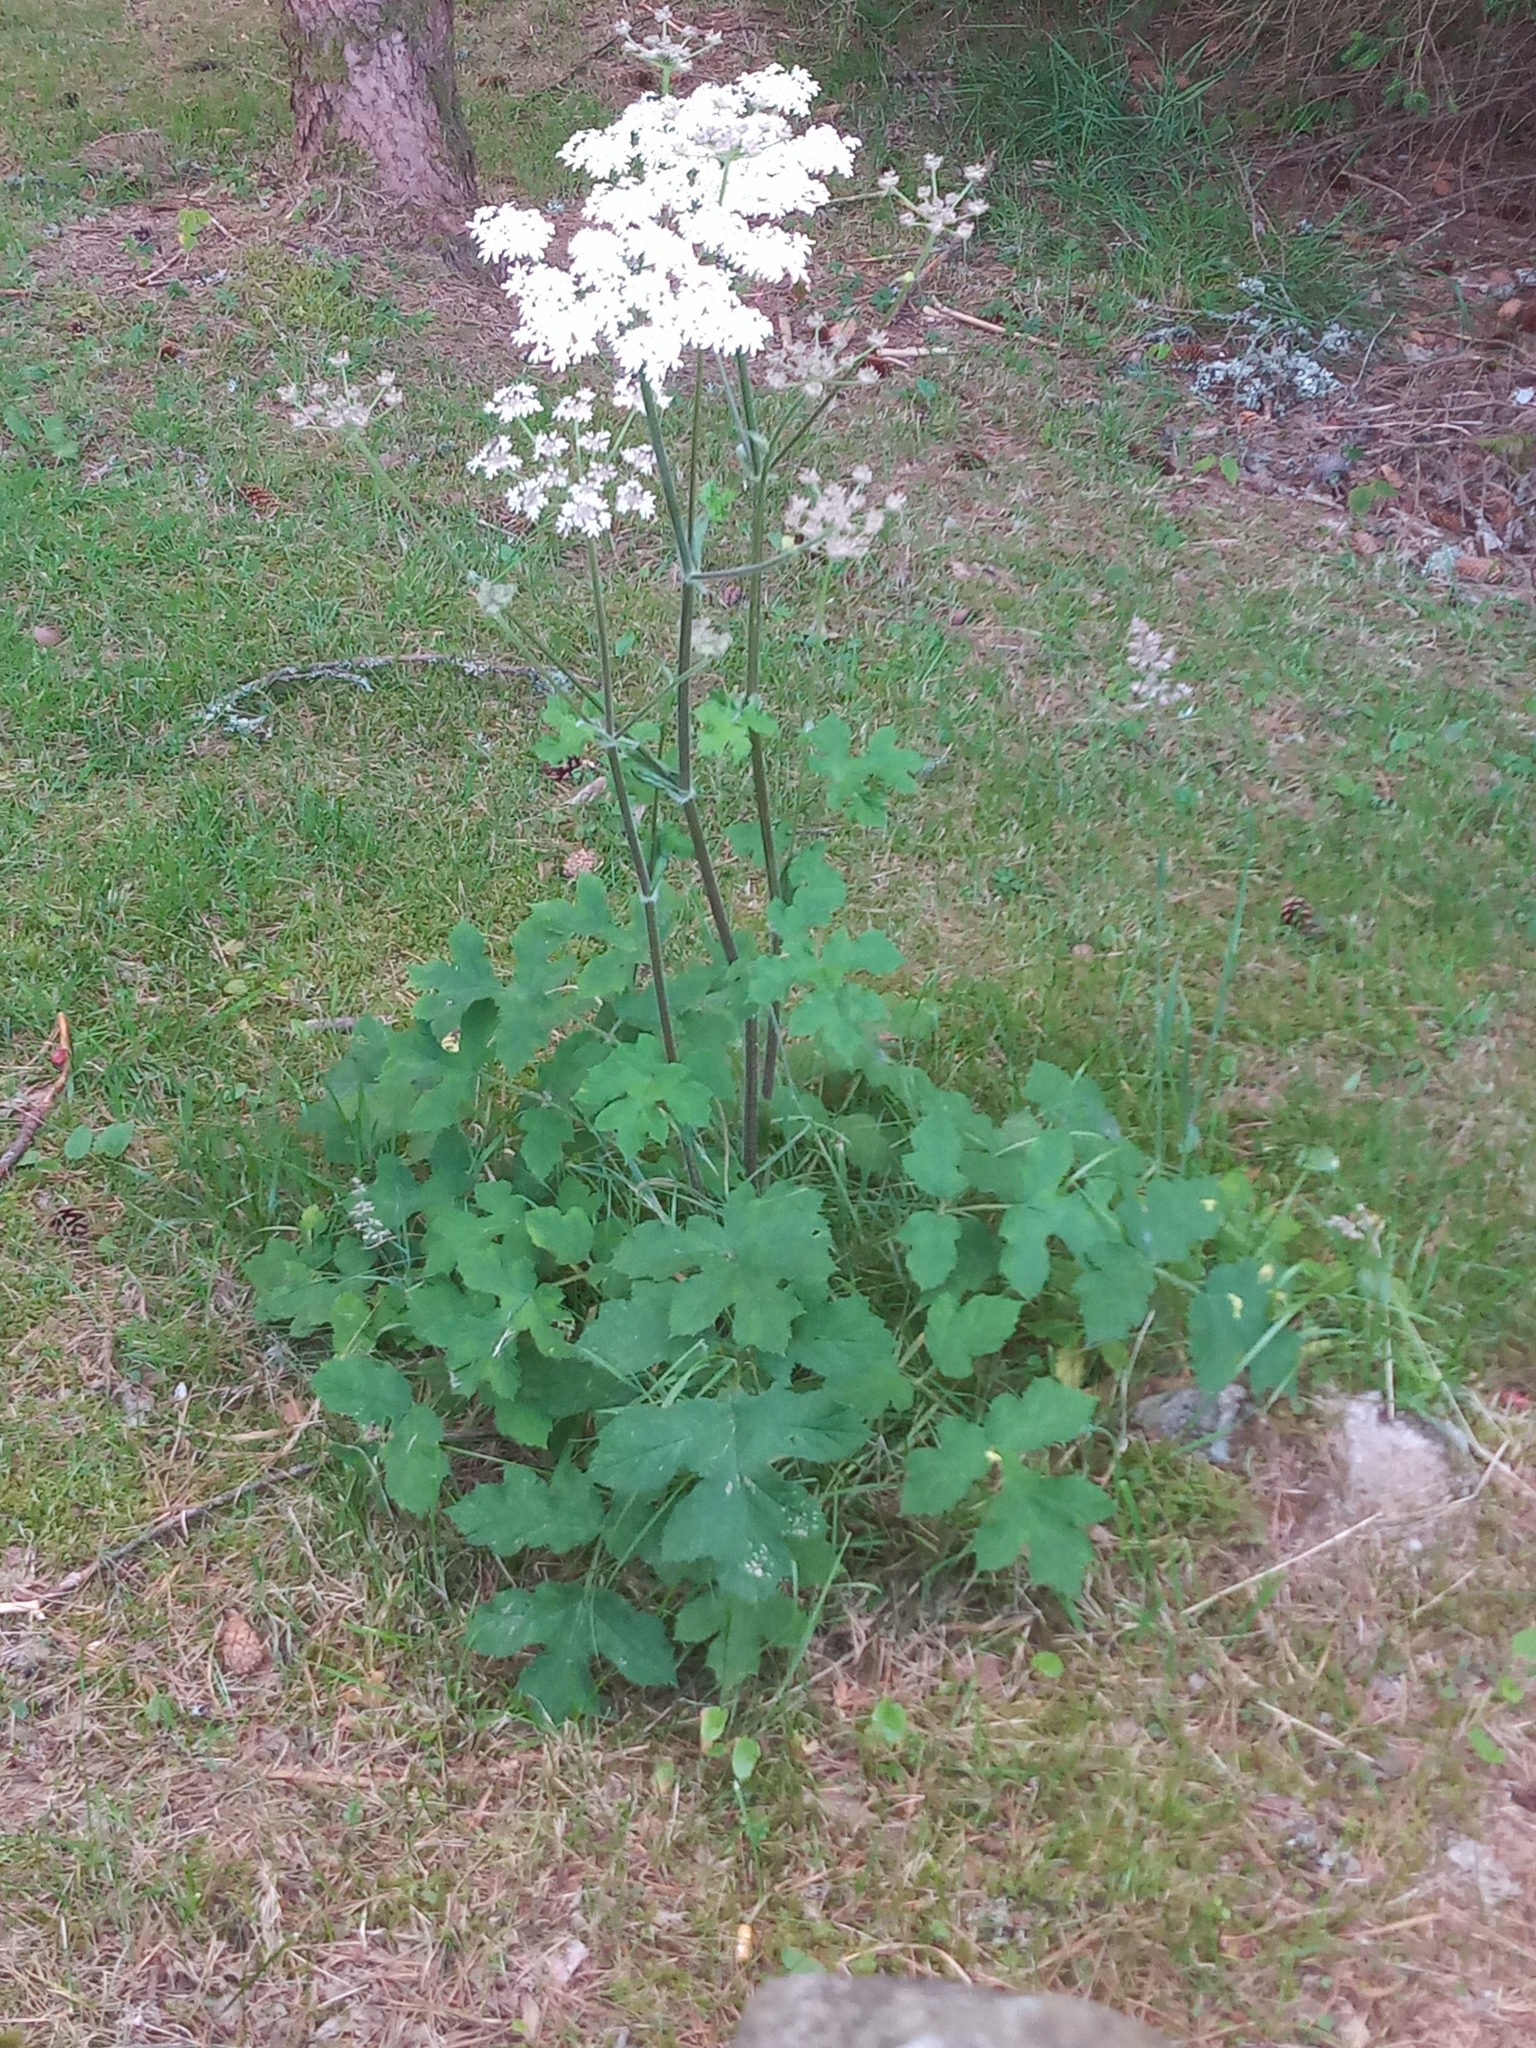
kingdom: Plantae
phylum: Tracheophyta
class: Magnoliopsida
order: Apiales
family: Apiaceae
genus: Heracleum
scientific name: Heracleum sphondylium
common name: Hogweed
